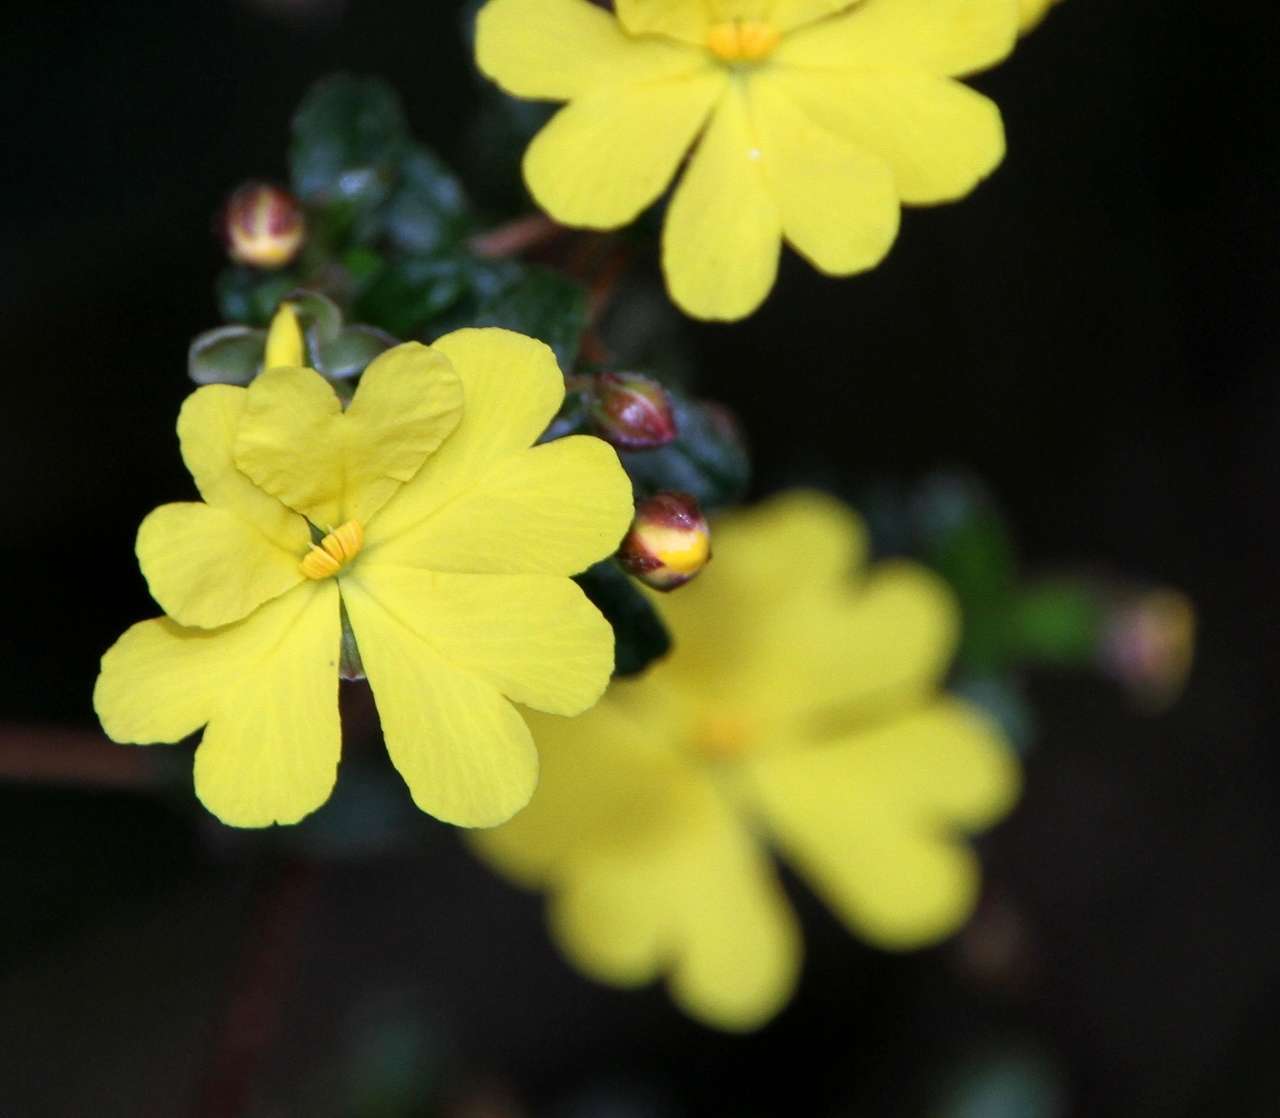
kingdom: Plantae
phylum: Tracheophyta
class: Magnoliopsida
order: Dilleniales
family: Dilleniaceae
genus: Hibbertia
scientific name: Hibbertia appressa
